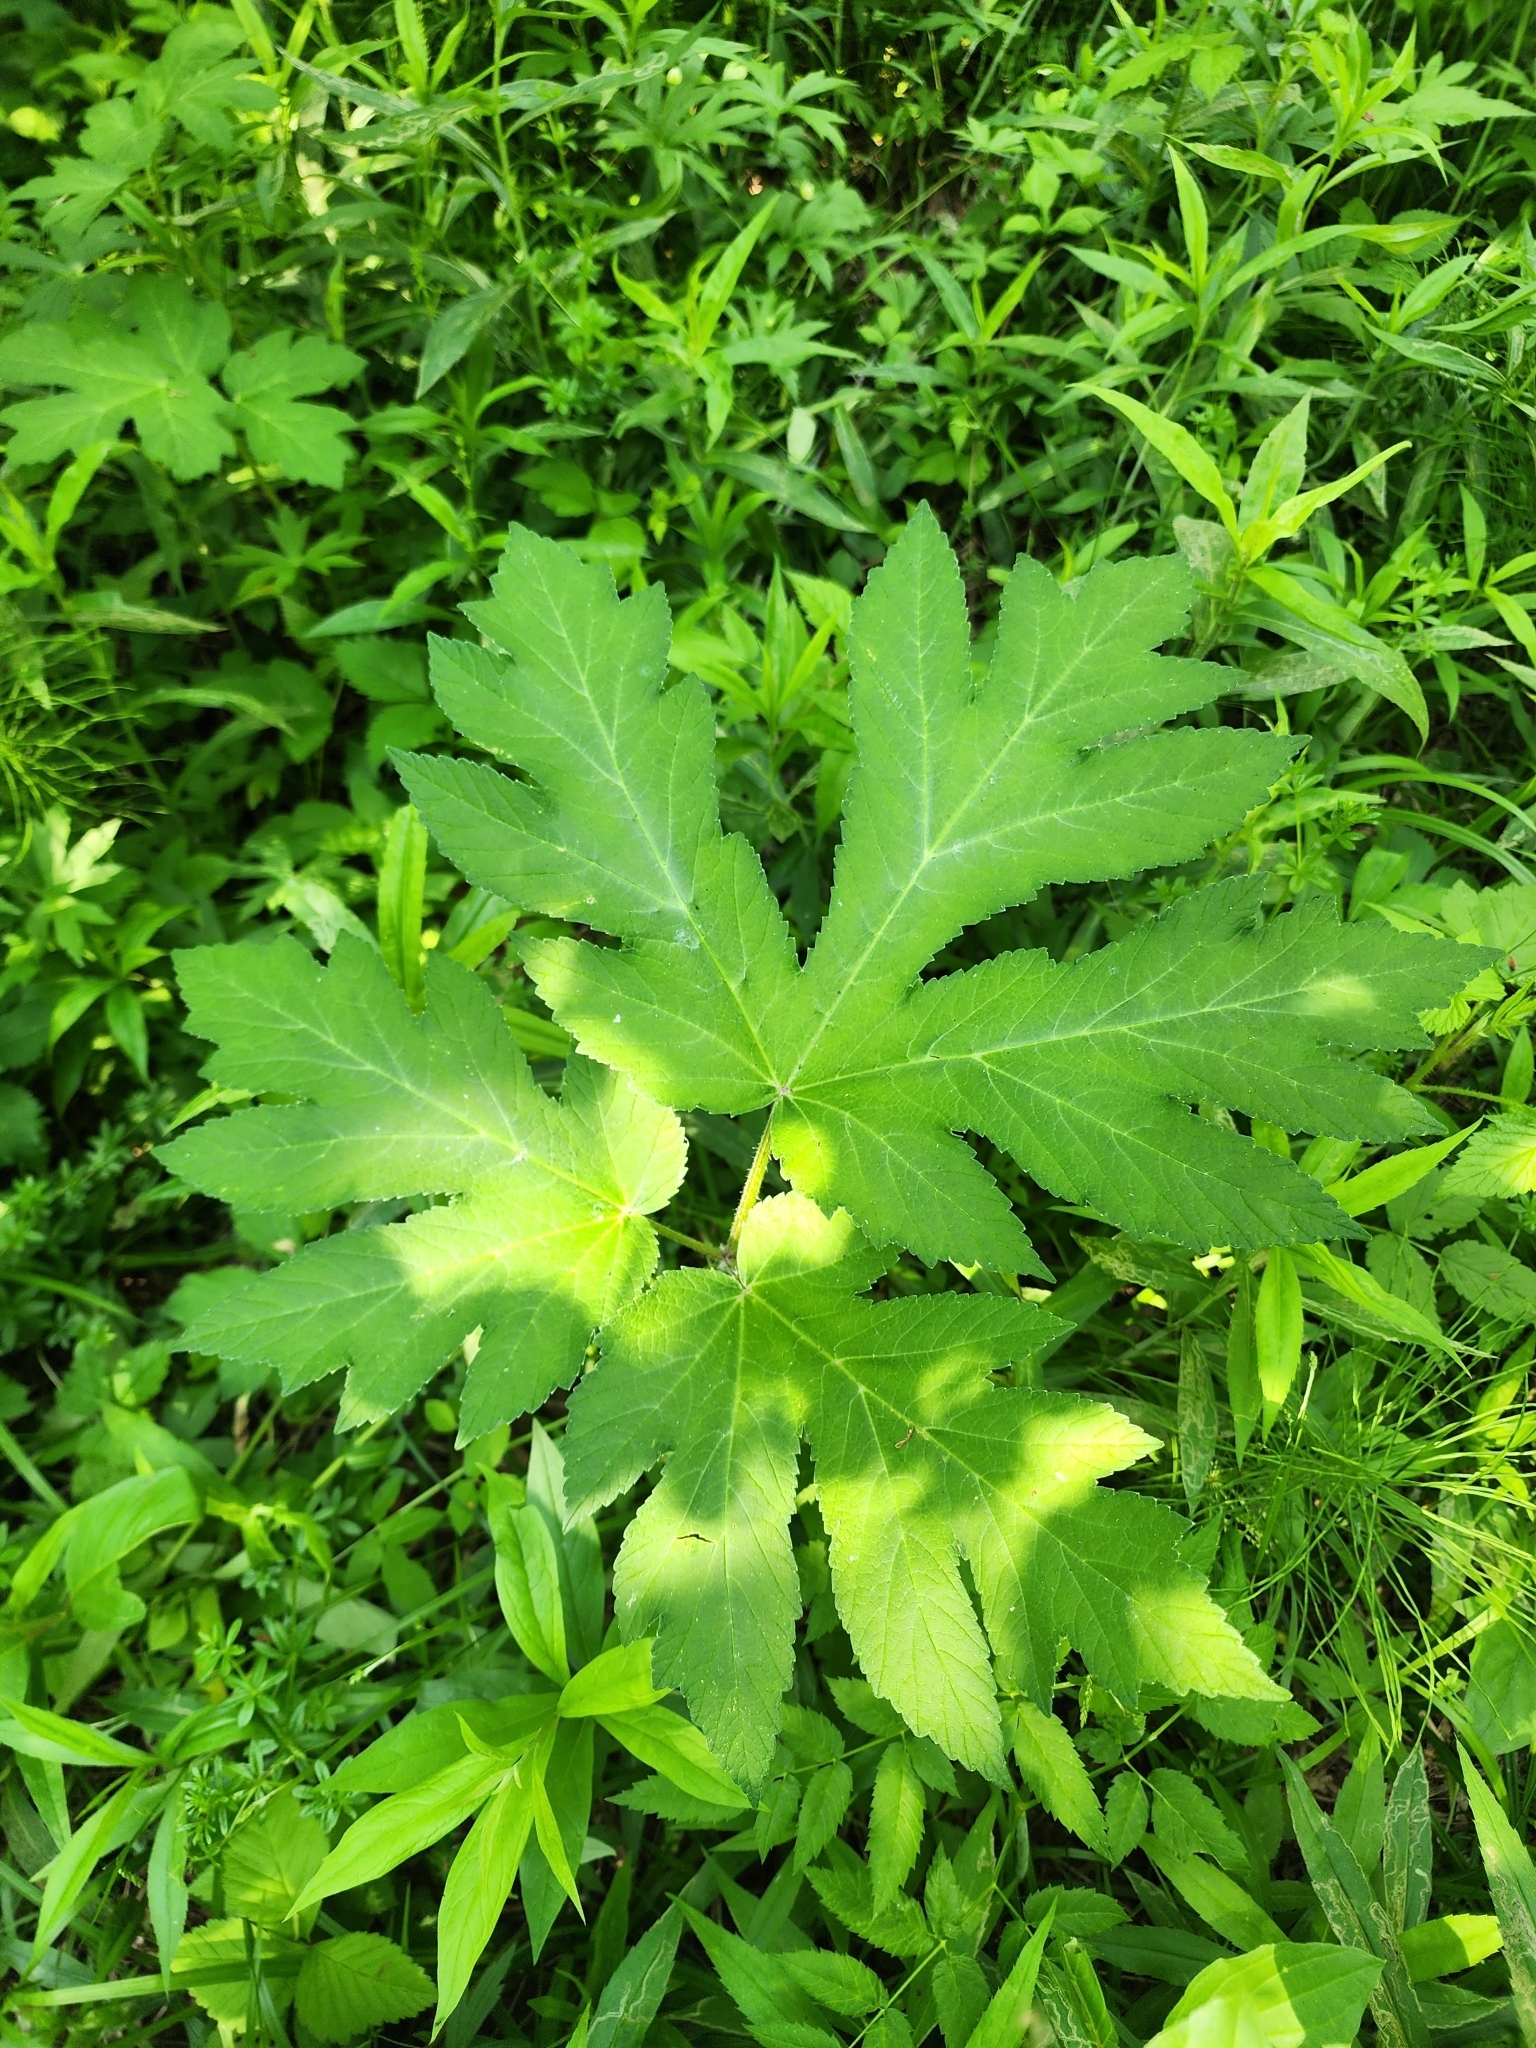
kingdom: Plantae
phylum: Tracheophyta
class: Magnoliopsida
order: Apiales
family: Apiaceae
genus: Heracleum
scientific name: Heracleum maximum
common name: American cow parsnip
